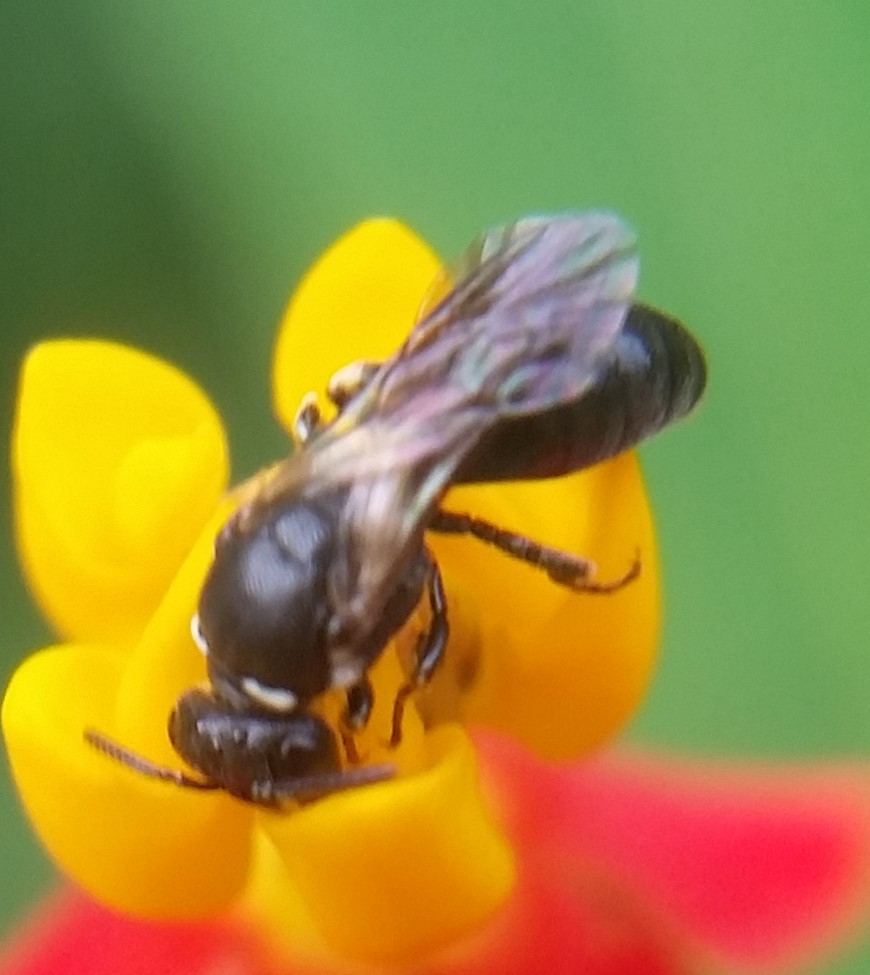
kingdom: Animalia
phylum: Arthropoda
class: Insecta
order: Hymenoptera
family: Colletidae
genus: Hylaeus
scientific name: Hylaeus modestus
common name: Yellow-faced bee
